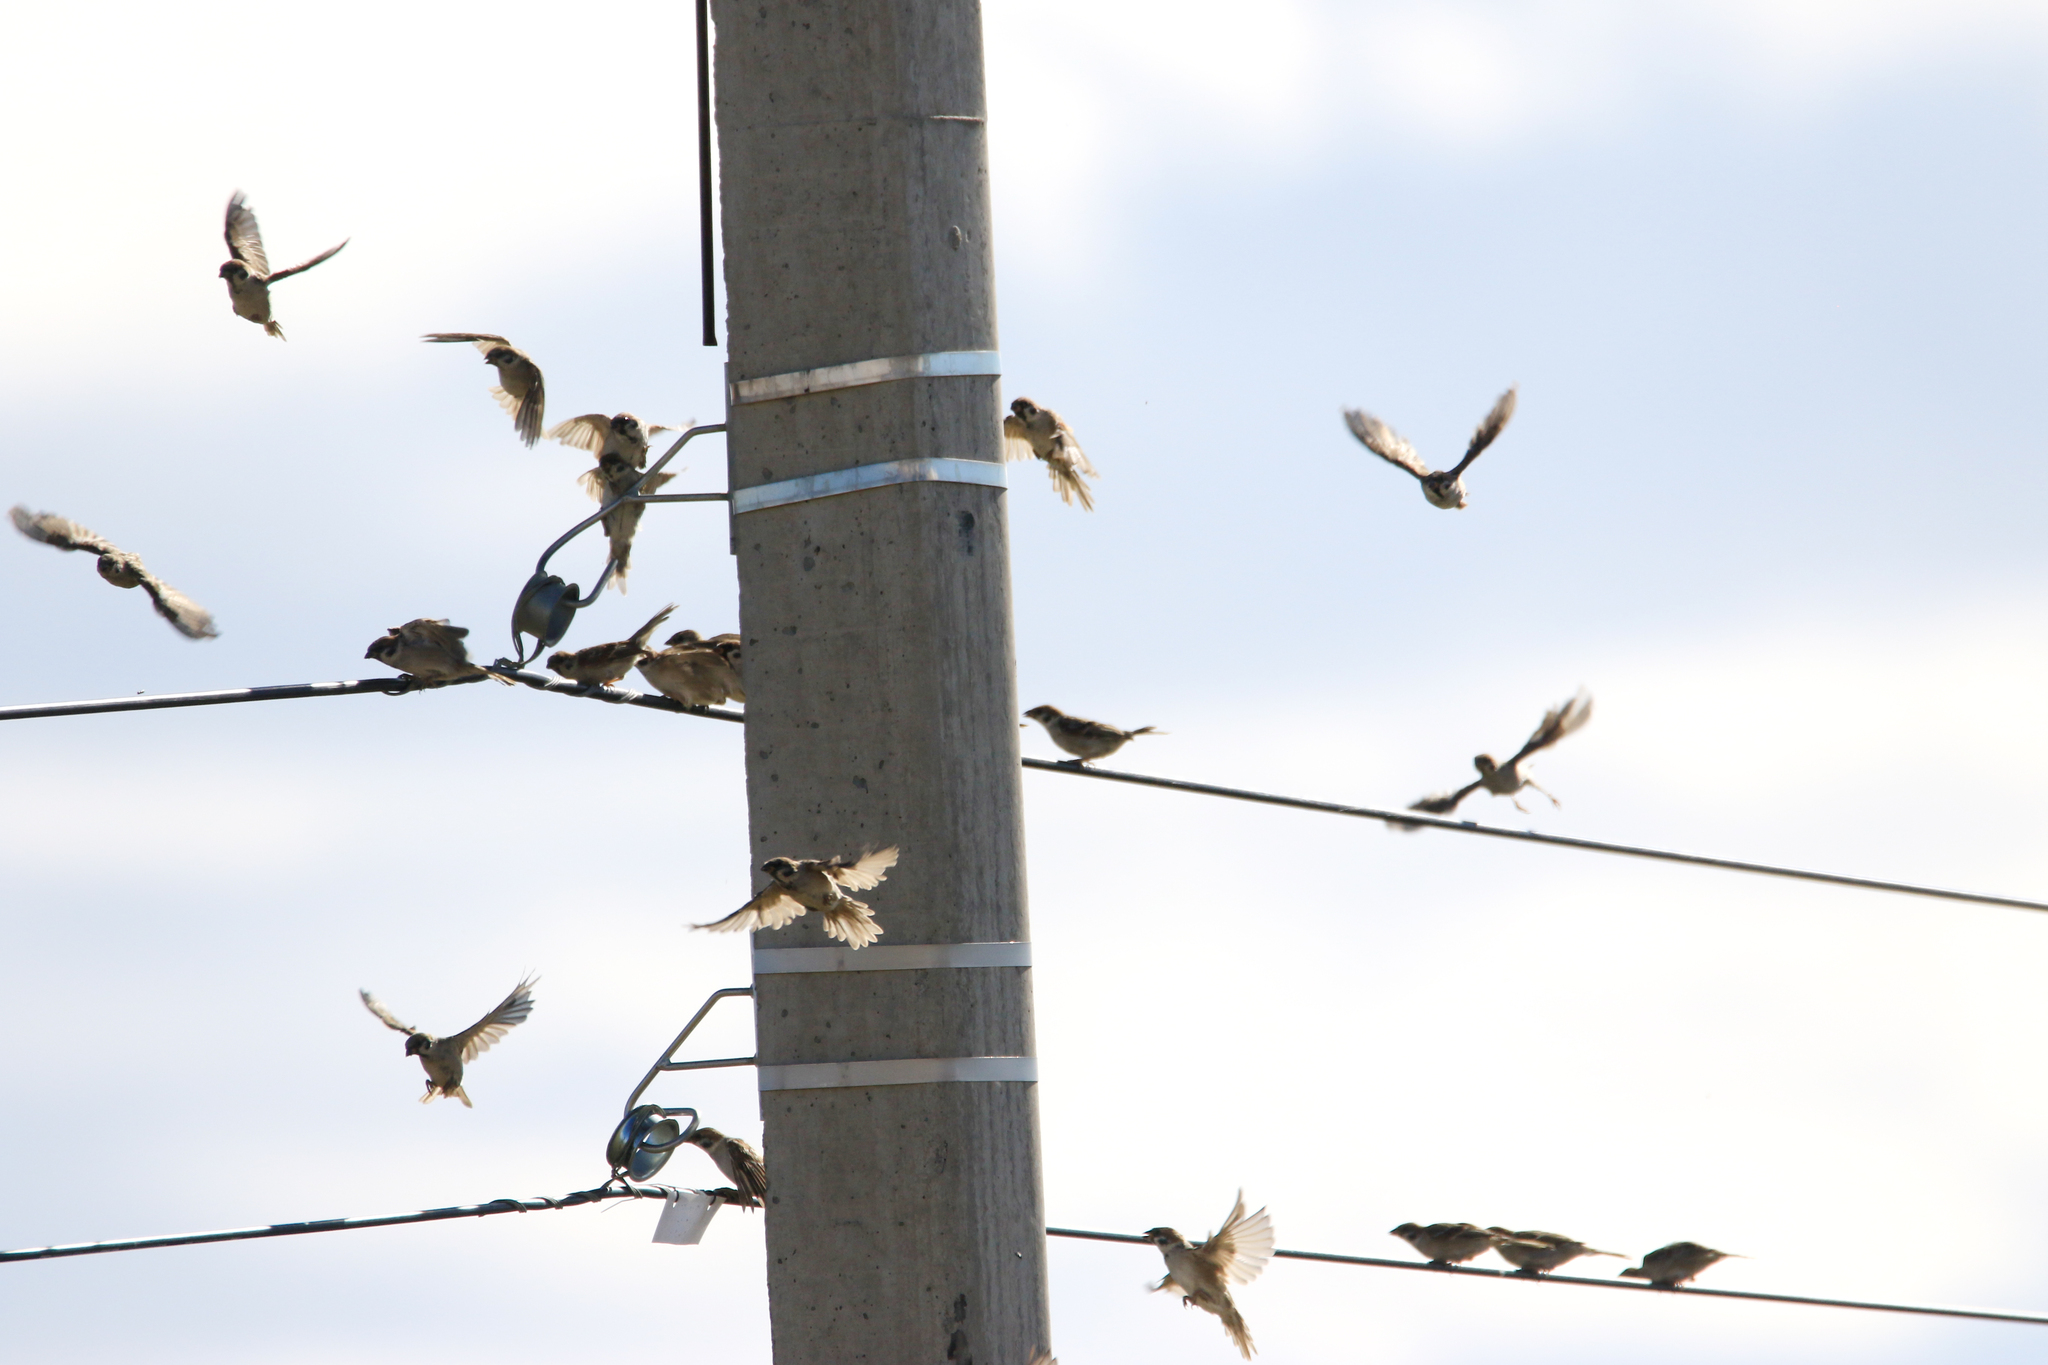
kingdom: Animalia
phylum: Chordata
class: Aves
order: Passeriformes
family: Passeridae
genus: Passer
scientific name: Passer montanus
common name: Eurasian tree sparrow
